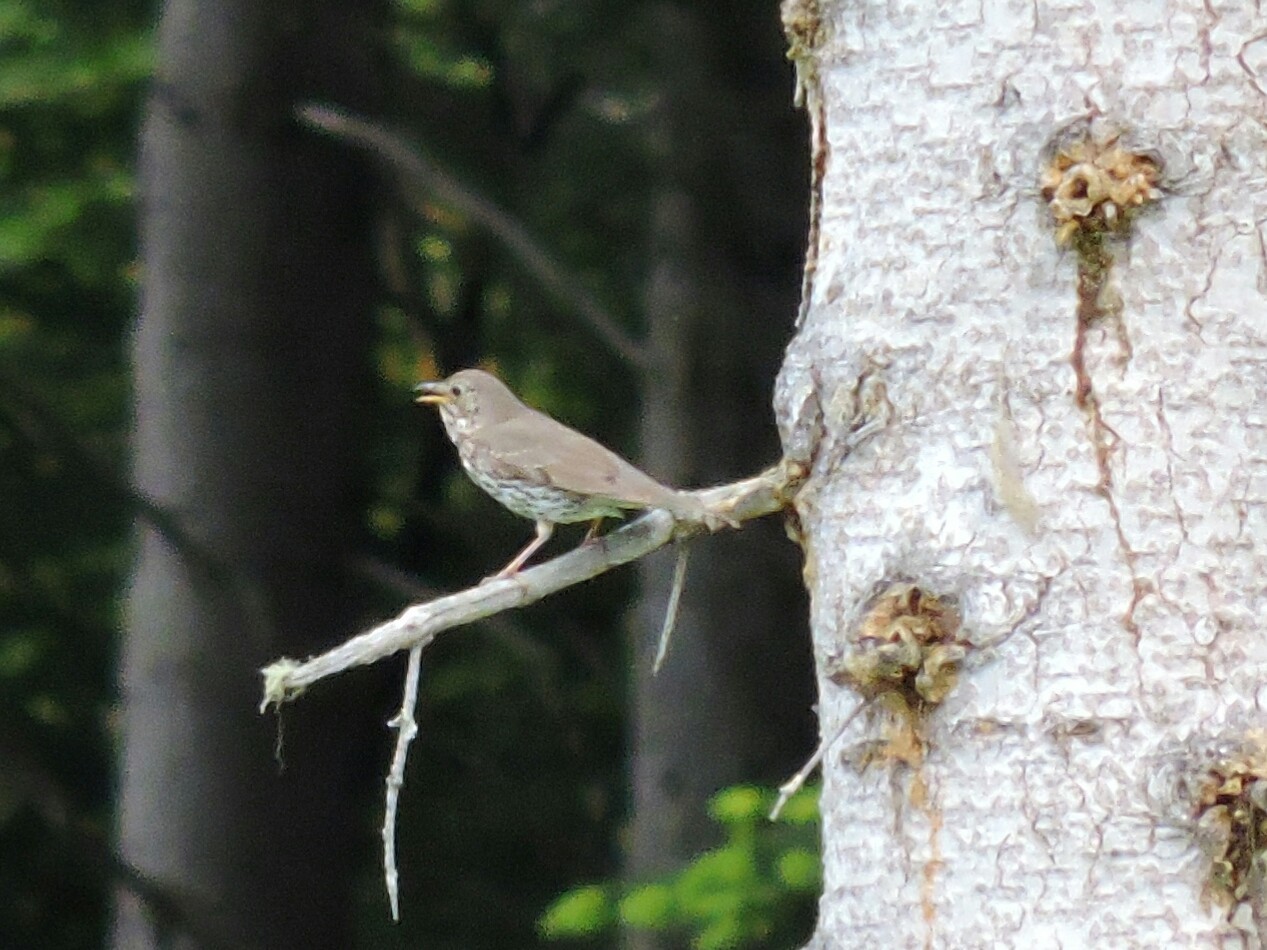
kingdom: Animalia
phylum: Chordata
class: Aves
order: Passeriformes
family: Turdidae
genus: Turdus
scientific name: Turdus philomelos
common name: Song thrush
